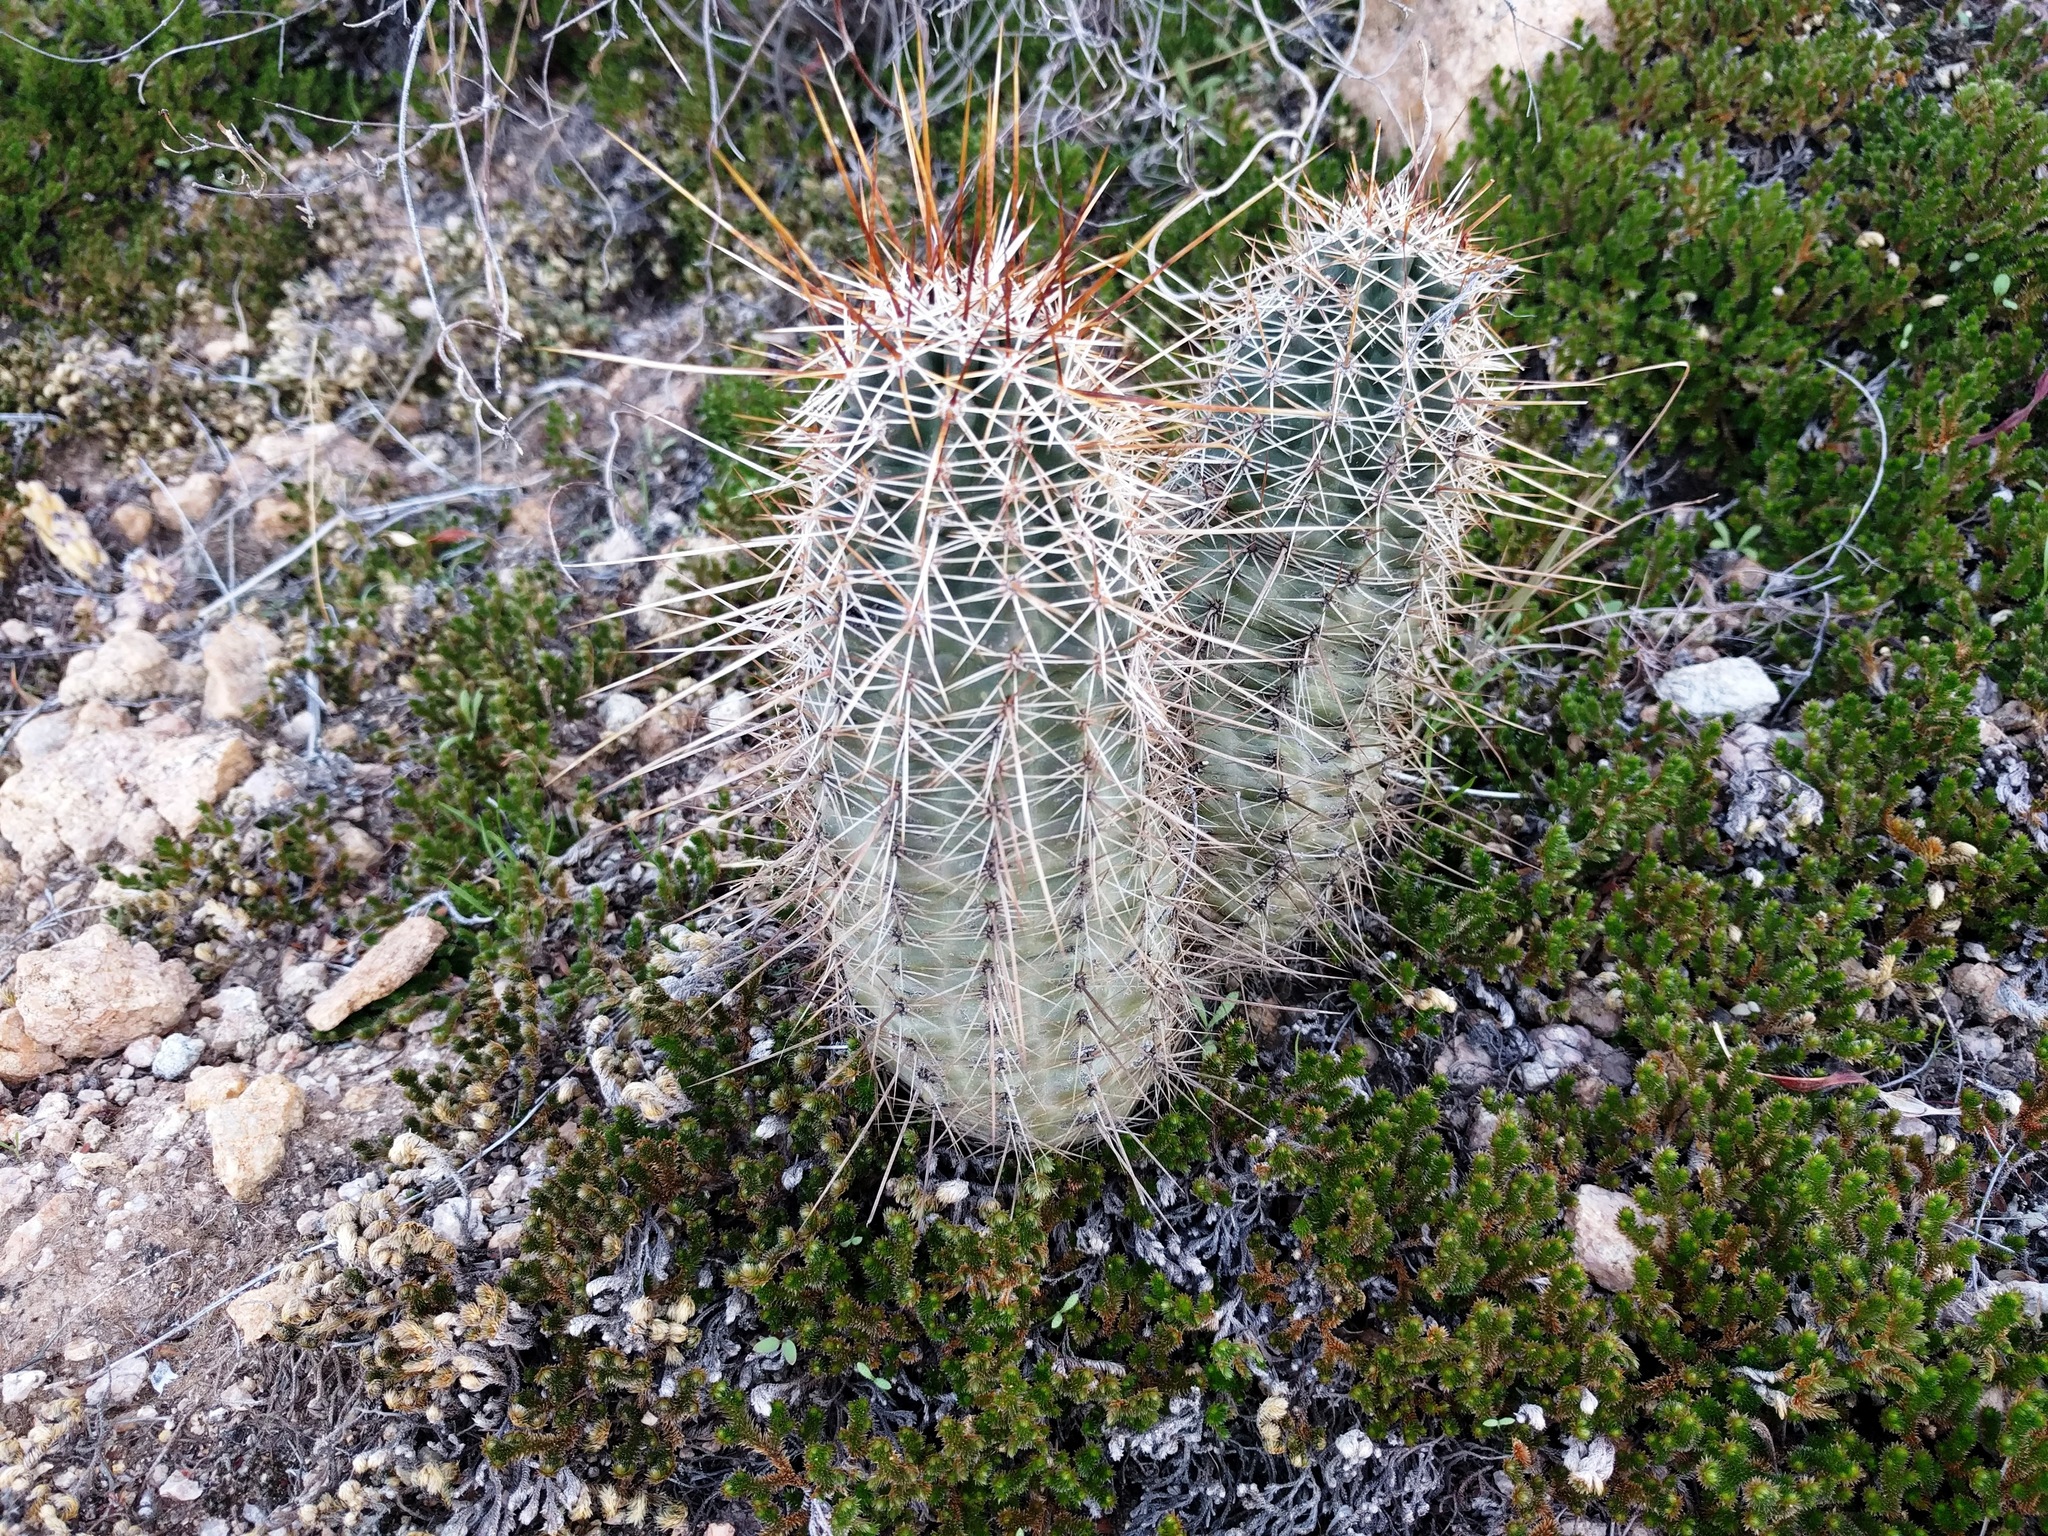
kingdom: Plantae
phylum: Tracheophyta
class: Magnoliopsida
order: Caryophyllales
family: Cactaceae
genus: Echinocereus
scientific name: Echinocereus fasciculatus
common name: Bundle hedgehog
